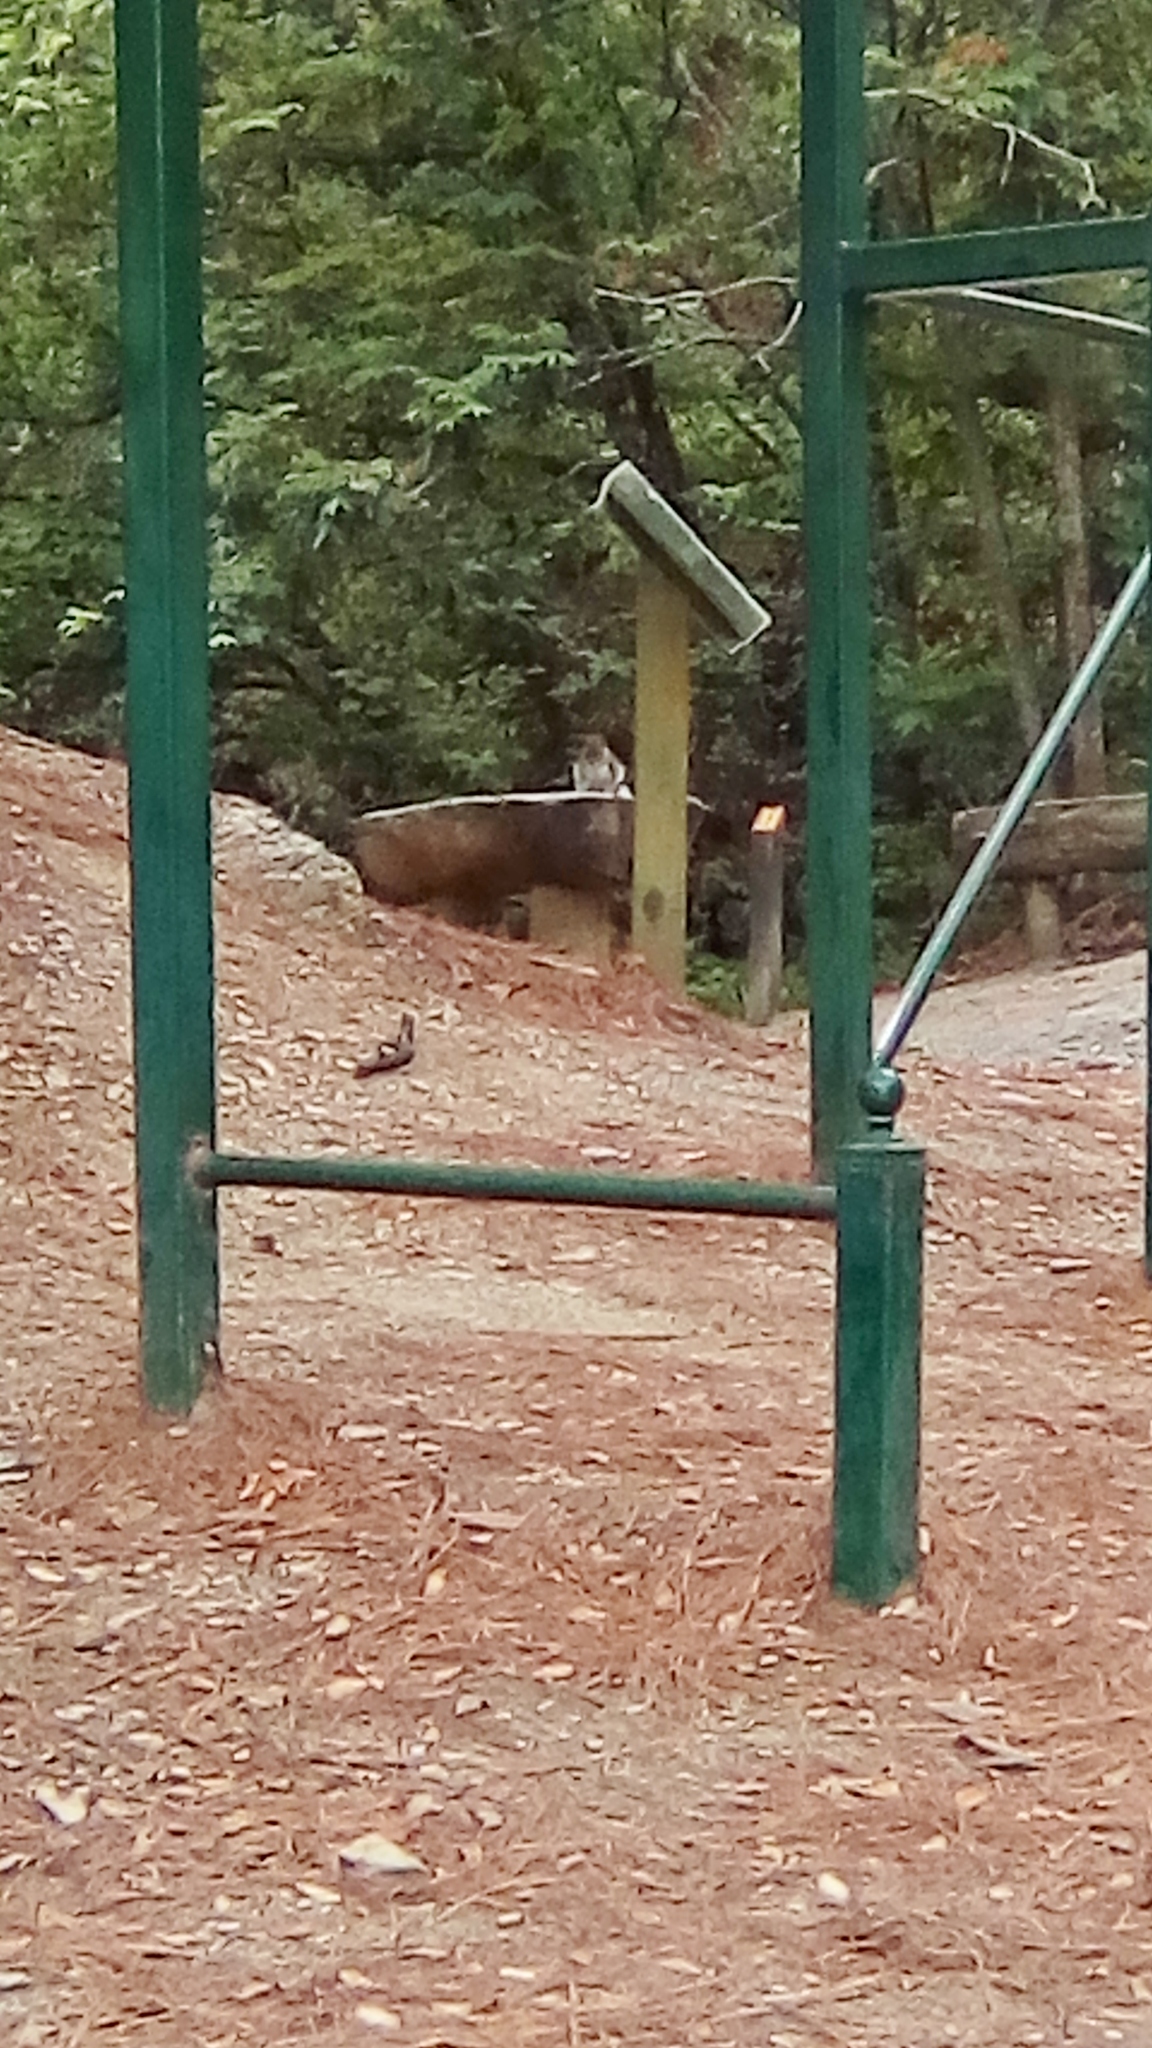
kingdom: Animalia
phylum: Chordata
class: Mammalia
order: Rodentia
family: Sciuridae
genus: Sciurus
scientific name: Sciurus alleni
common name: Allen's squirrel
